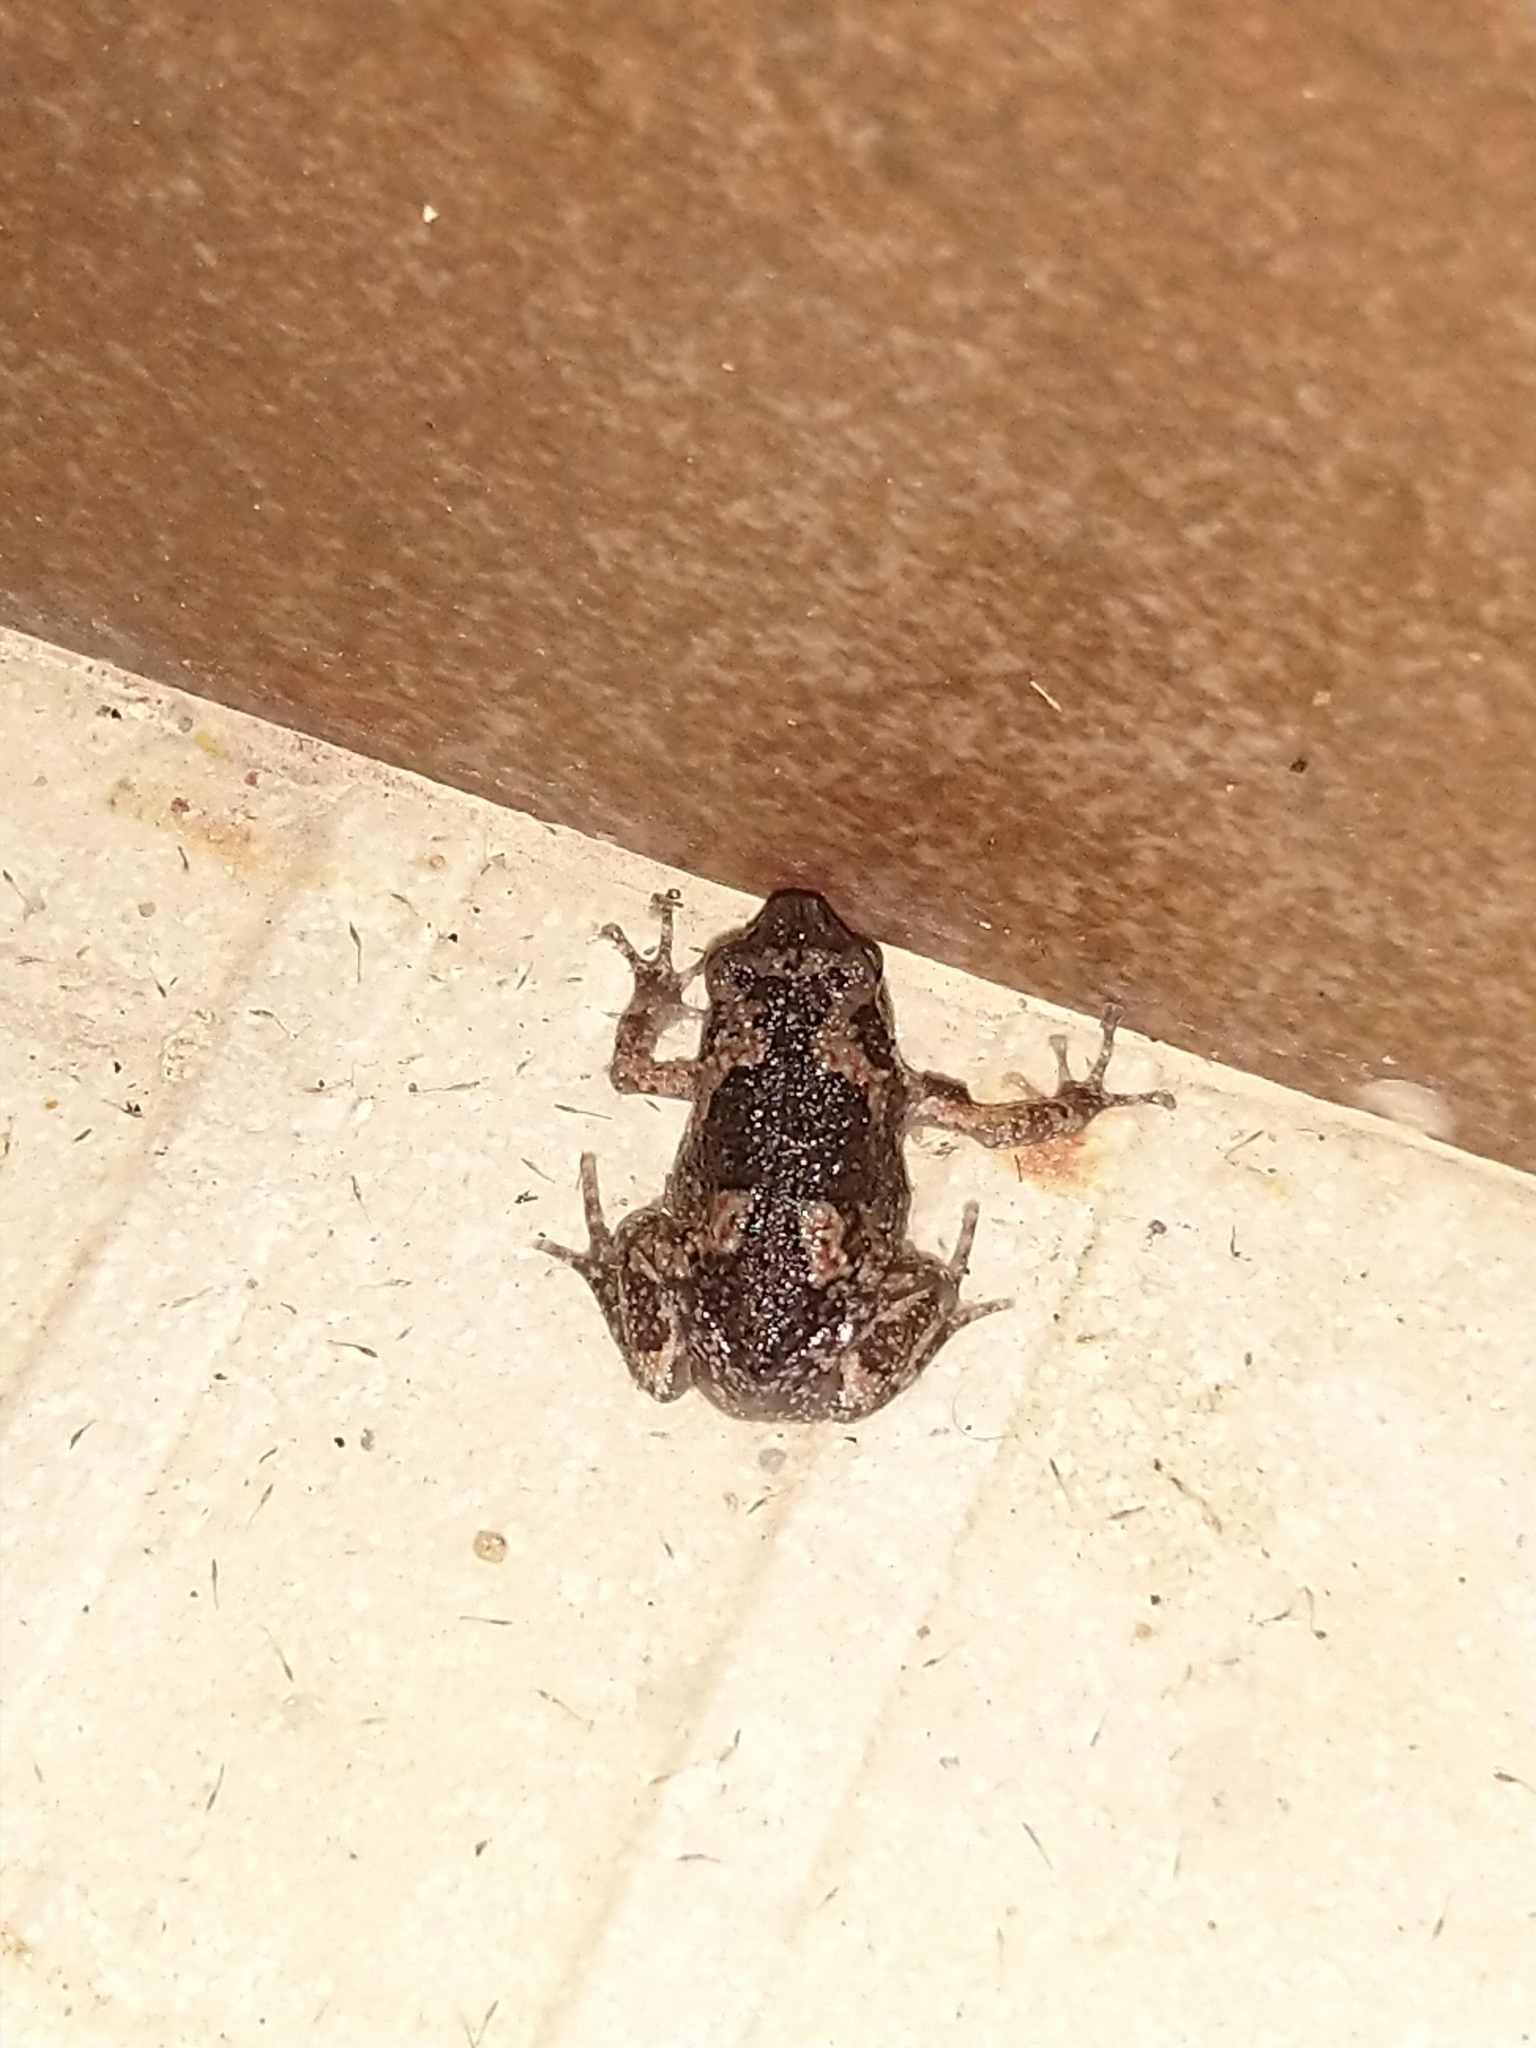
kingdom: Animalia
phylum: Chordata
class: Amphibia
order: Anura
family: Microhylidae
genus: Uperodon
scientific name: Uperodon taprobanicus
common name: Ceylon kaloula
